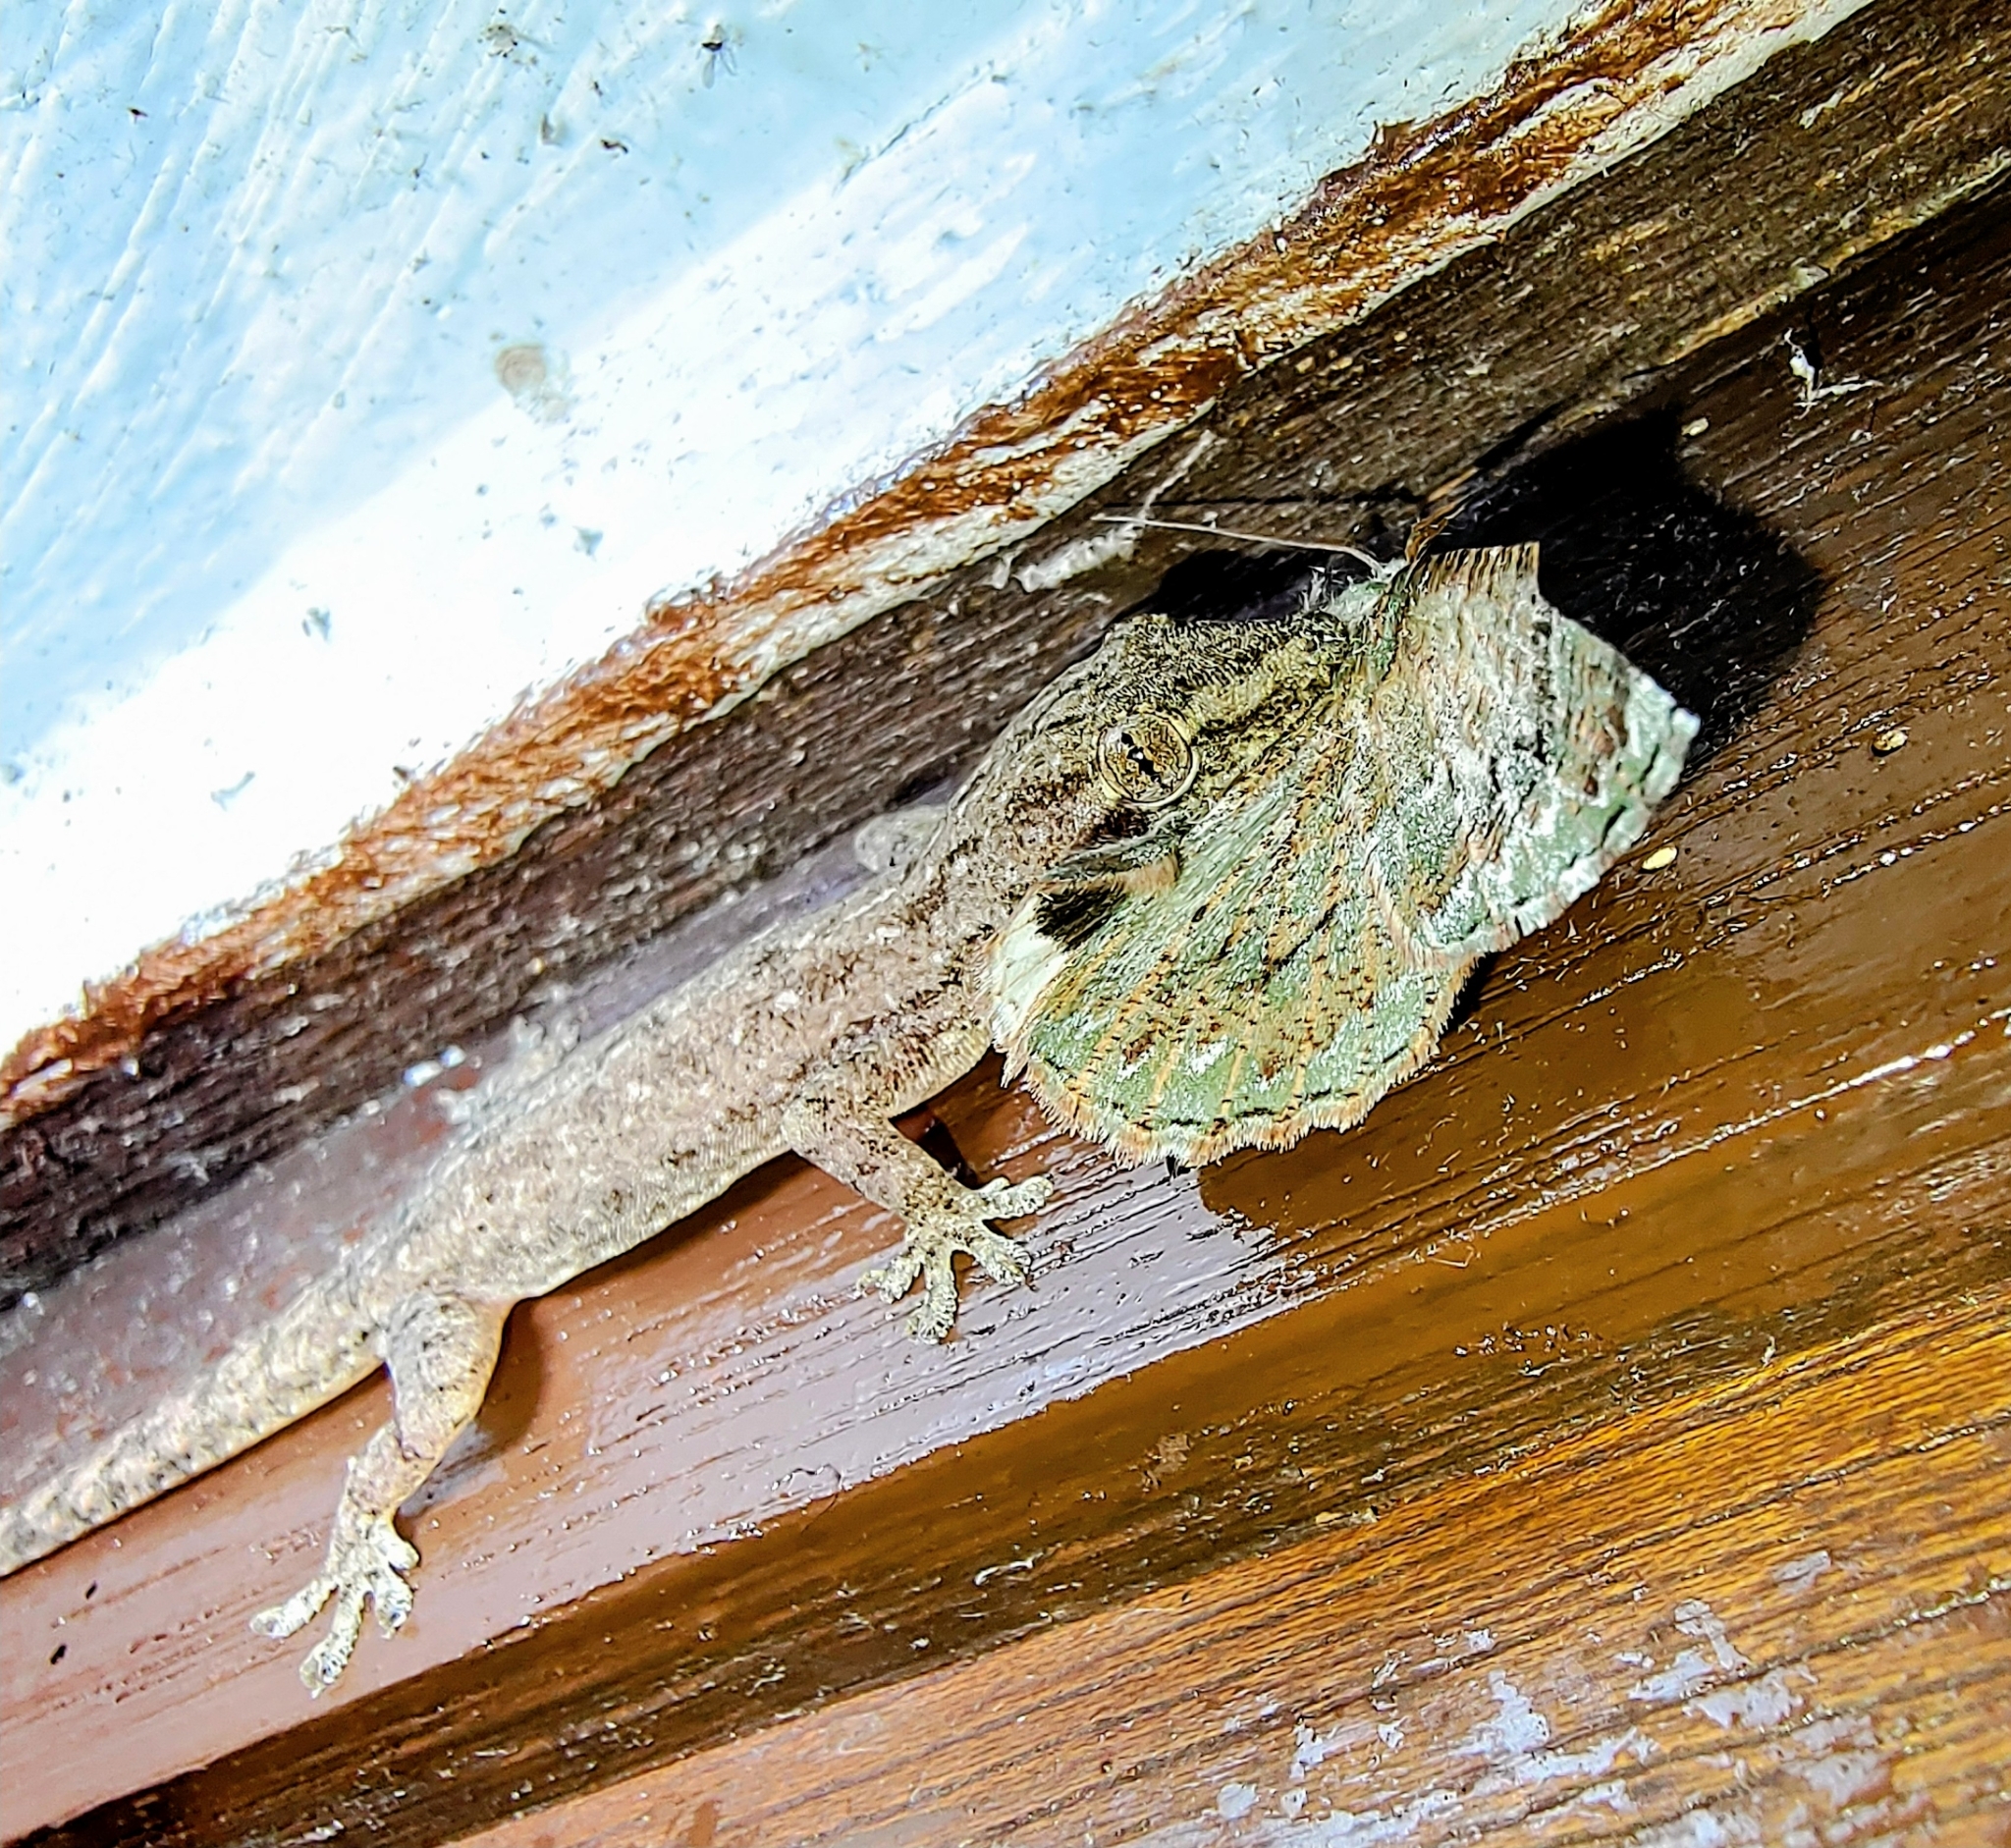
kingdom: Animalia
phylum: Chordata
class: Squamata
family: Gekkonidae
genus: Hemidactylus
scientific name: Hemidactylus frenatus
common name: Common house gecko
